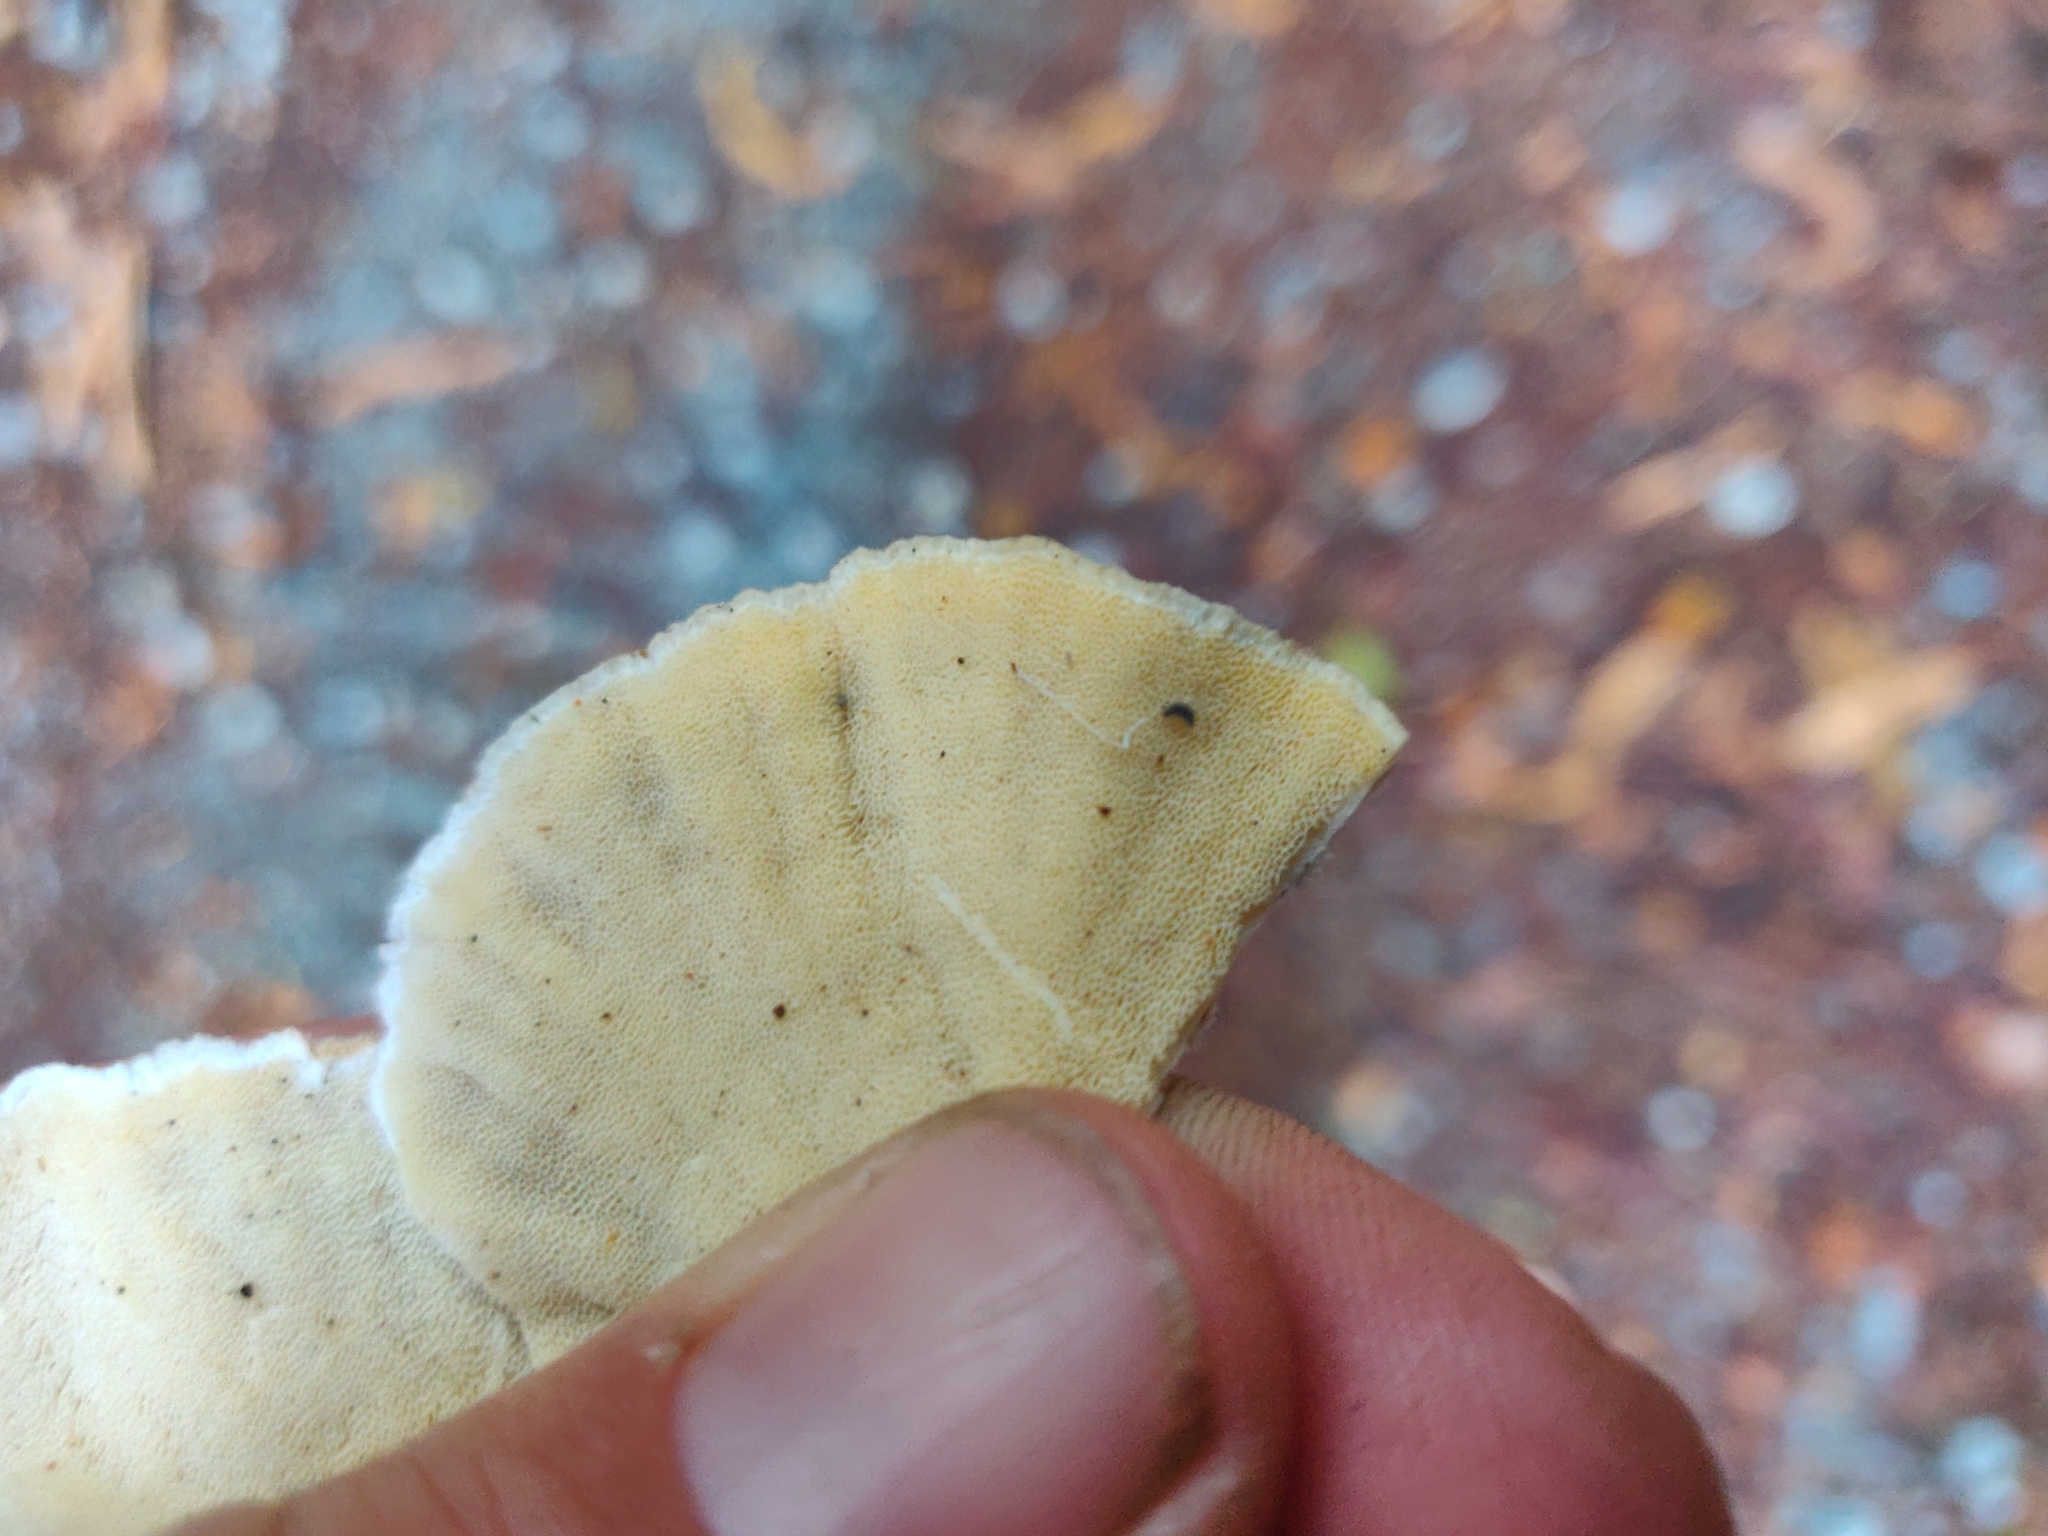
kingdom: Fungi
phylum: Basidiomycota
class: Agaricomycetes
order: Polyporales
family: Polyporaceae
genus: Trametes
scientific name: Trametes versicolor
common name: Turkeytail
